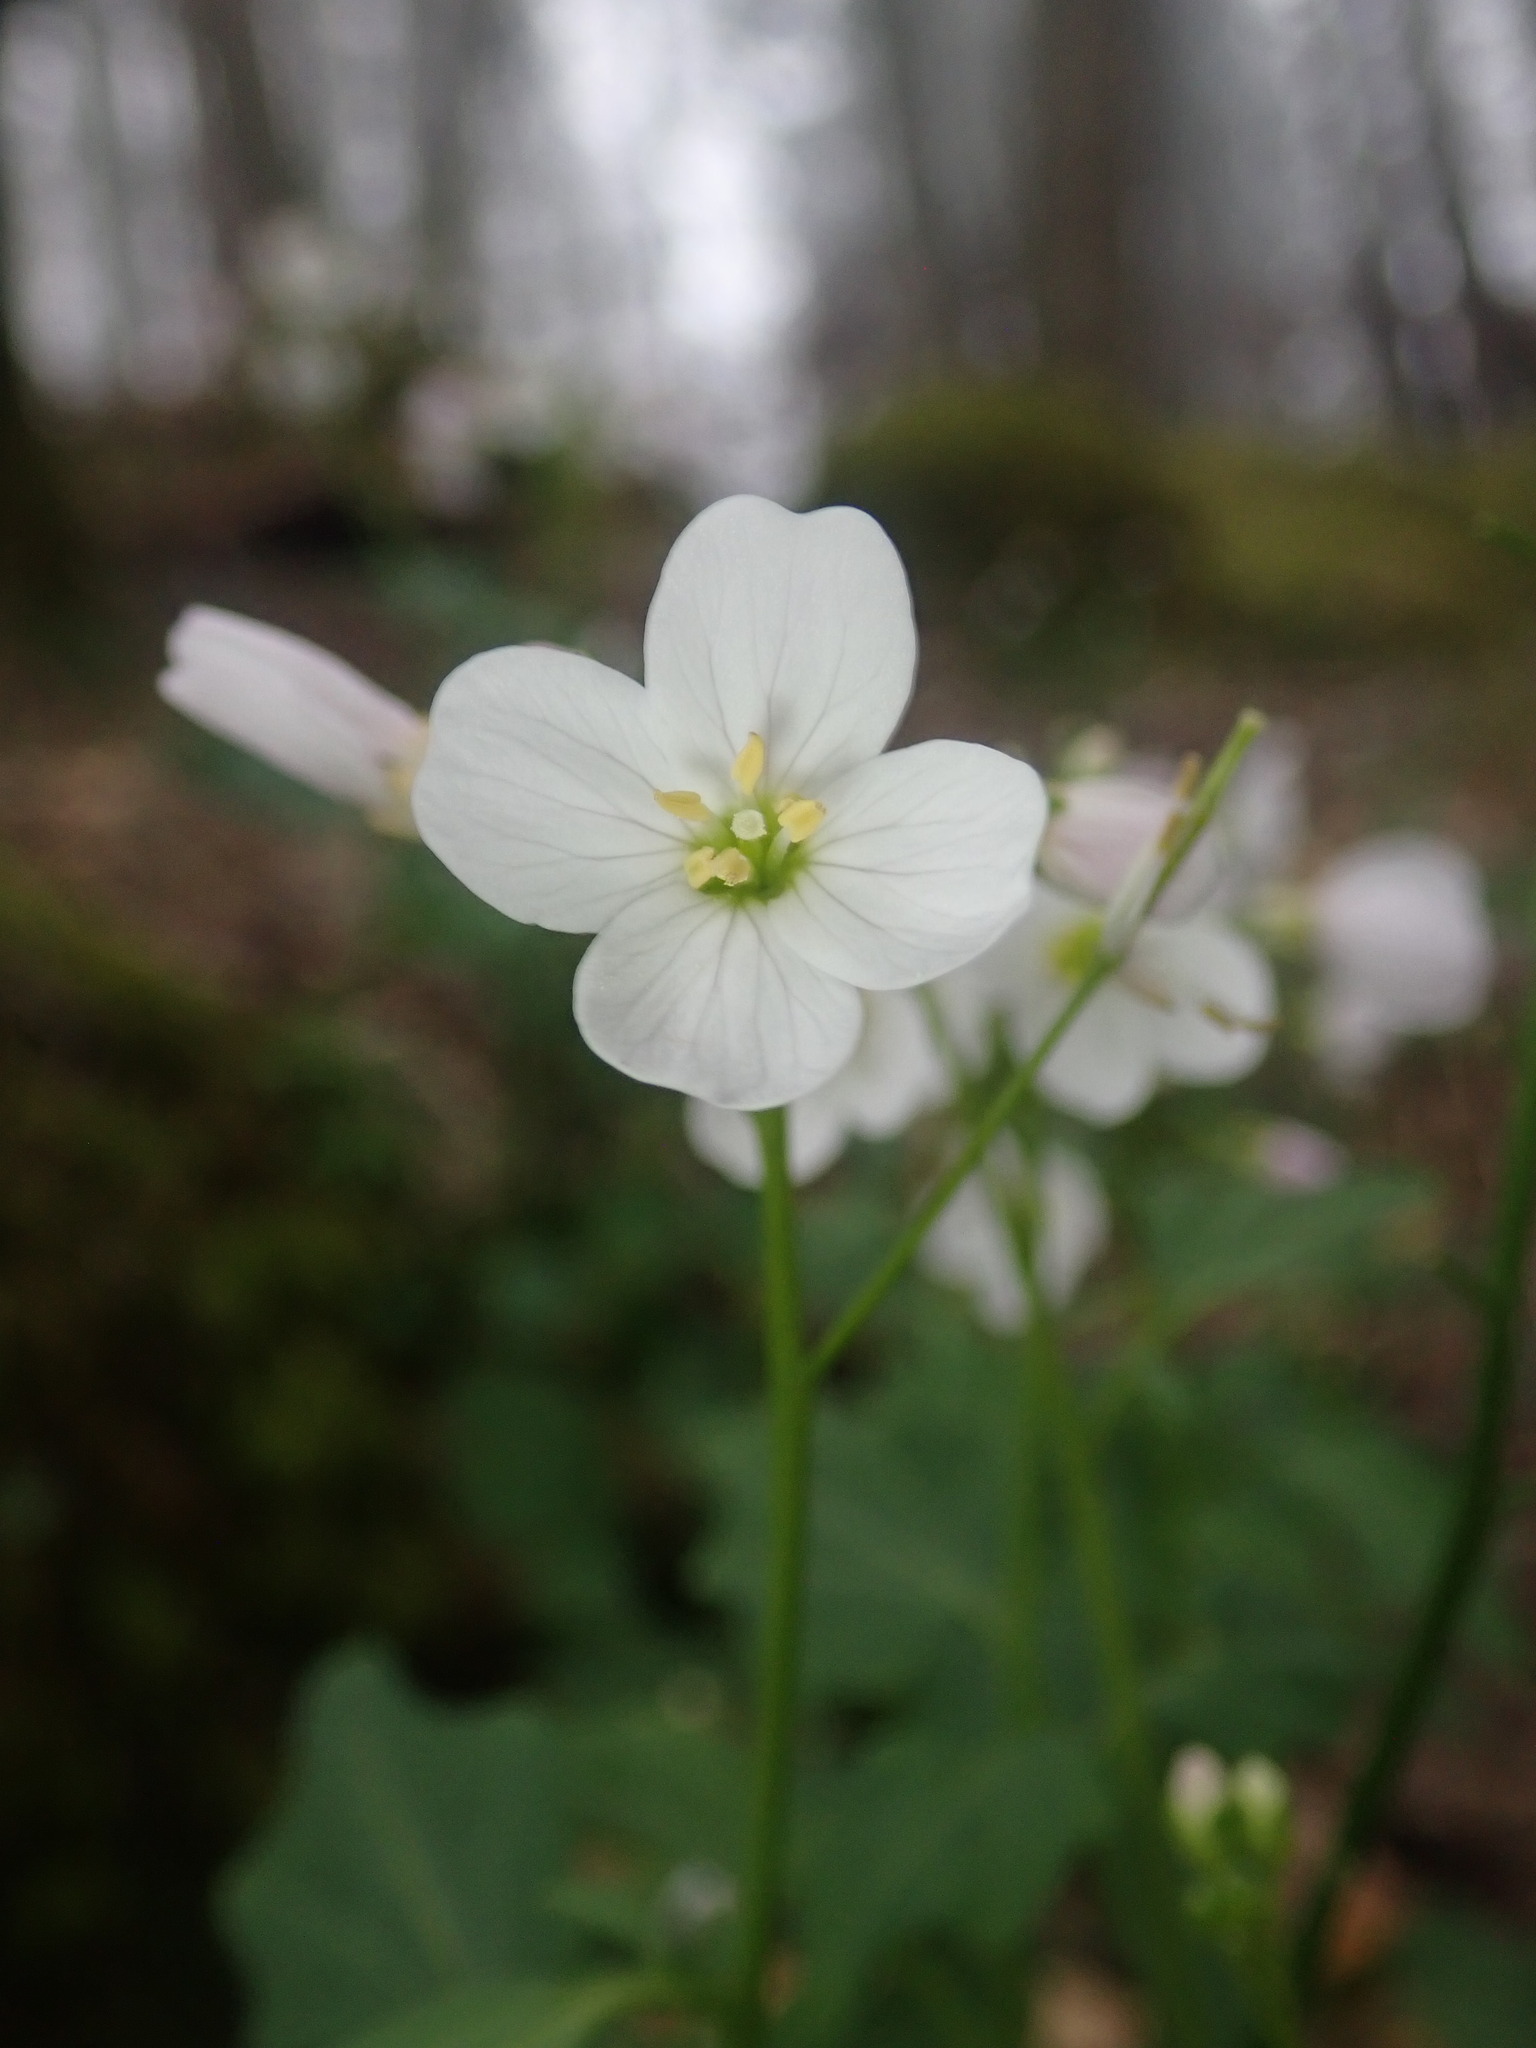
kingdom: Plantae
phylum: Tracheophyta
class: Magnoliopsida
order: Brassicales
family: Brassicaceae
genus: Cardamine
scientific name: Cardamine californica
